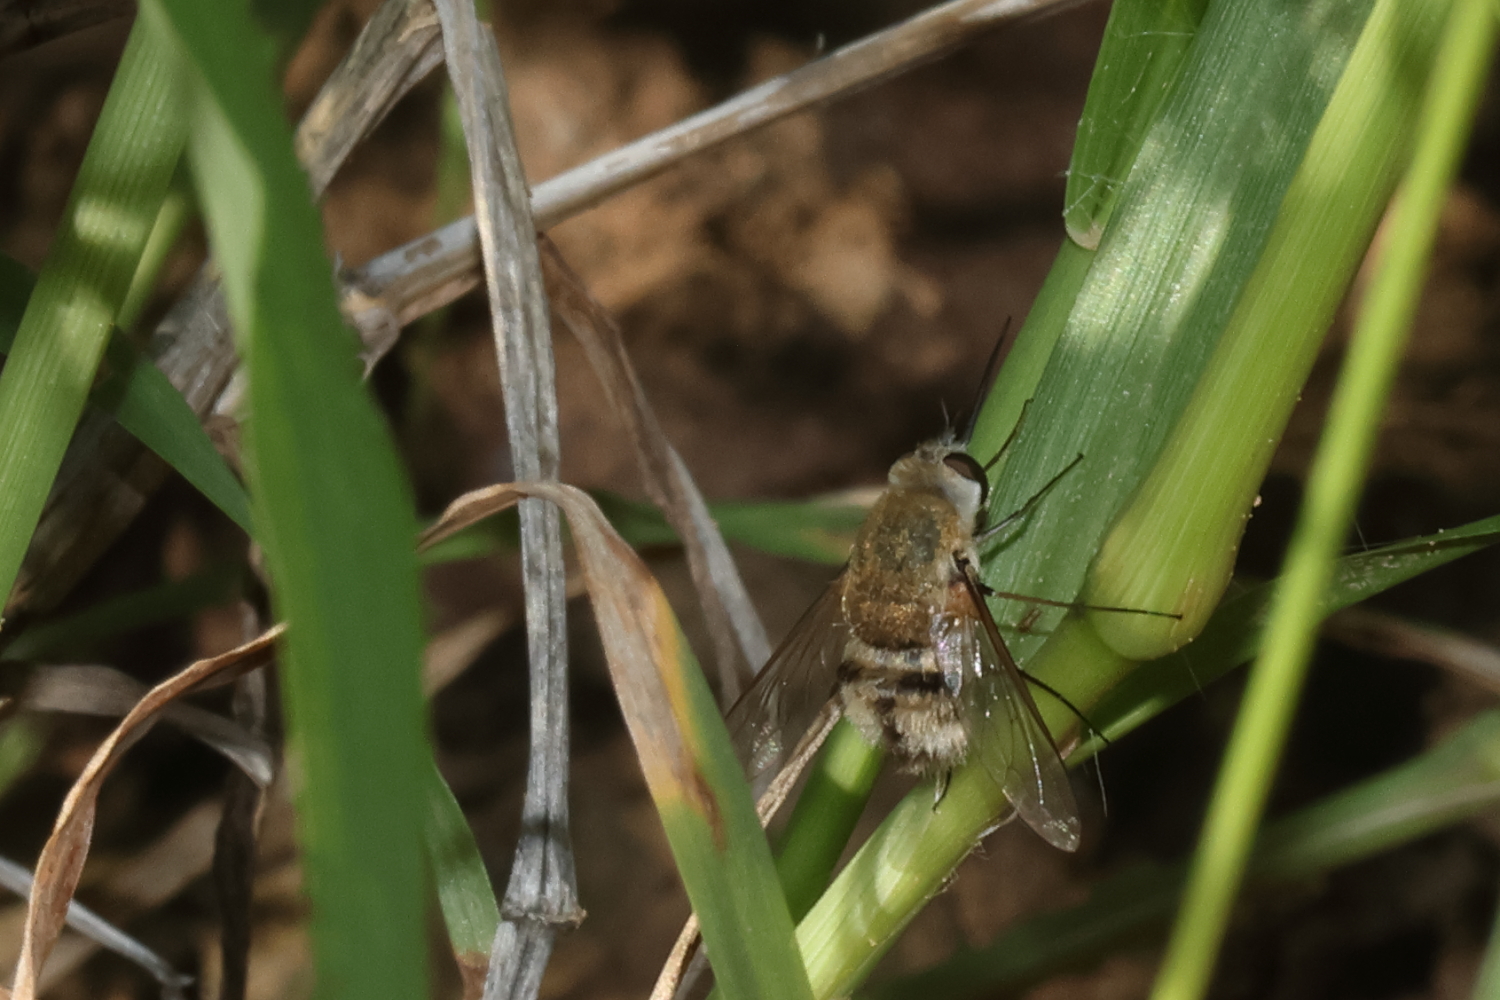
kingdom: Animalia
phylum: Arthropoda
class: Insecta
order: Diptera
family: Bombyliidae
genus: Heterostylum
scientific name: Heterostylum robustum
